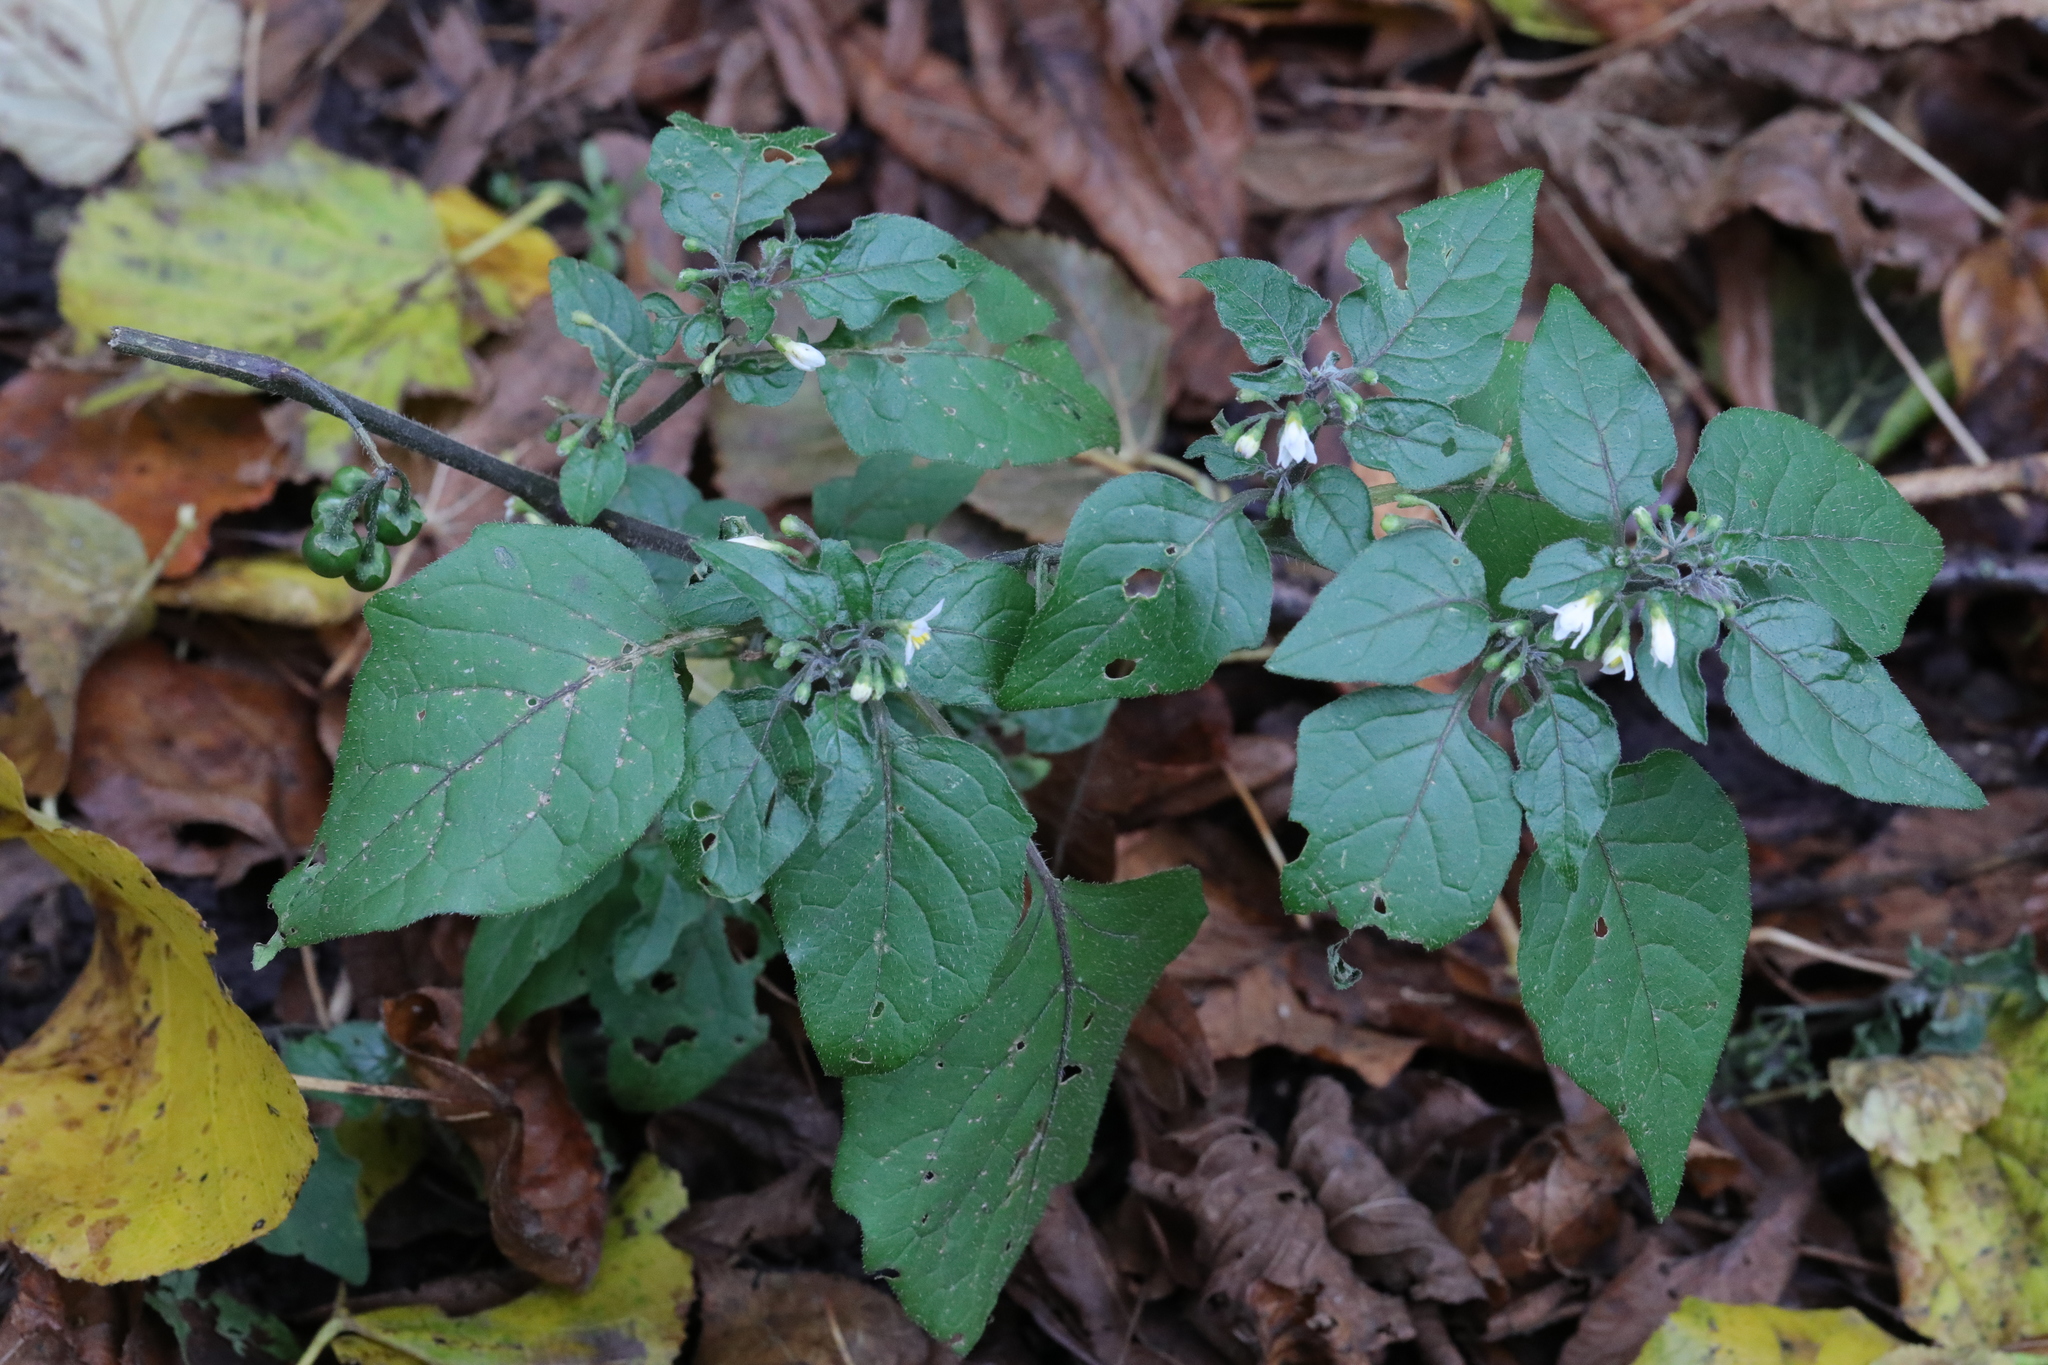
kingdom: Plantae
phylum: Tracheophyta
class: Magnoliopsida
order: Solanales
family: Solanaceae
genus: Solanum
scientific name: Solanum nigrum
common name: Black nightshade
